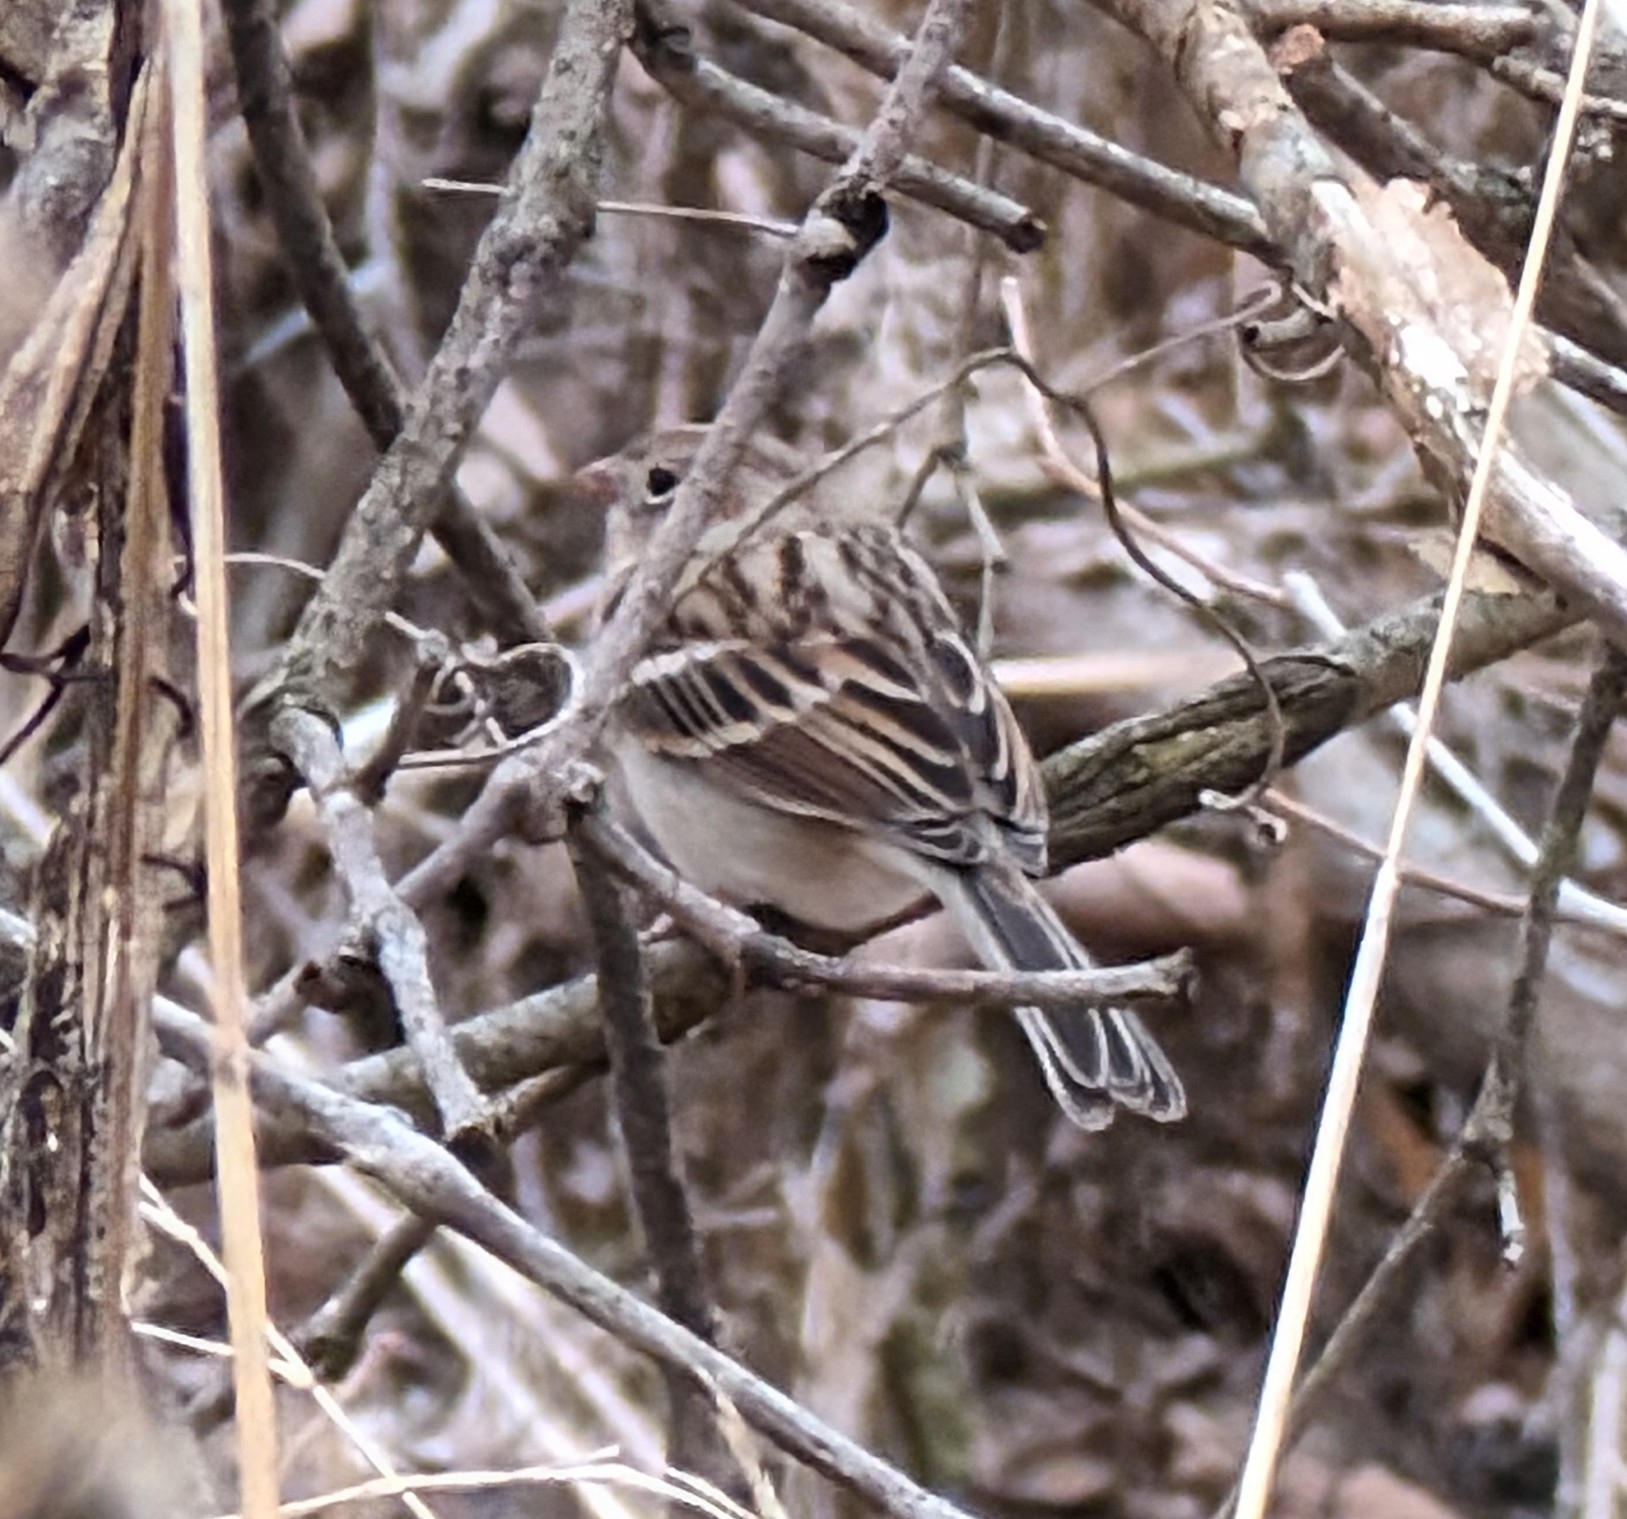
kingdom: Animalia
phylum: Chordata
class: Aves
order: Passeriformes
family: Passerellidae
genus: Spizella
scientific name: Spizella pusilla
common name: Field sparrow
